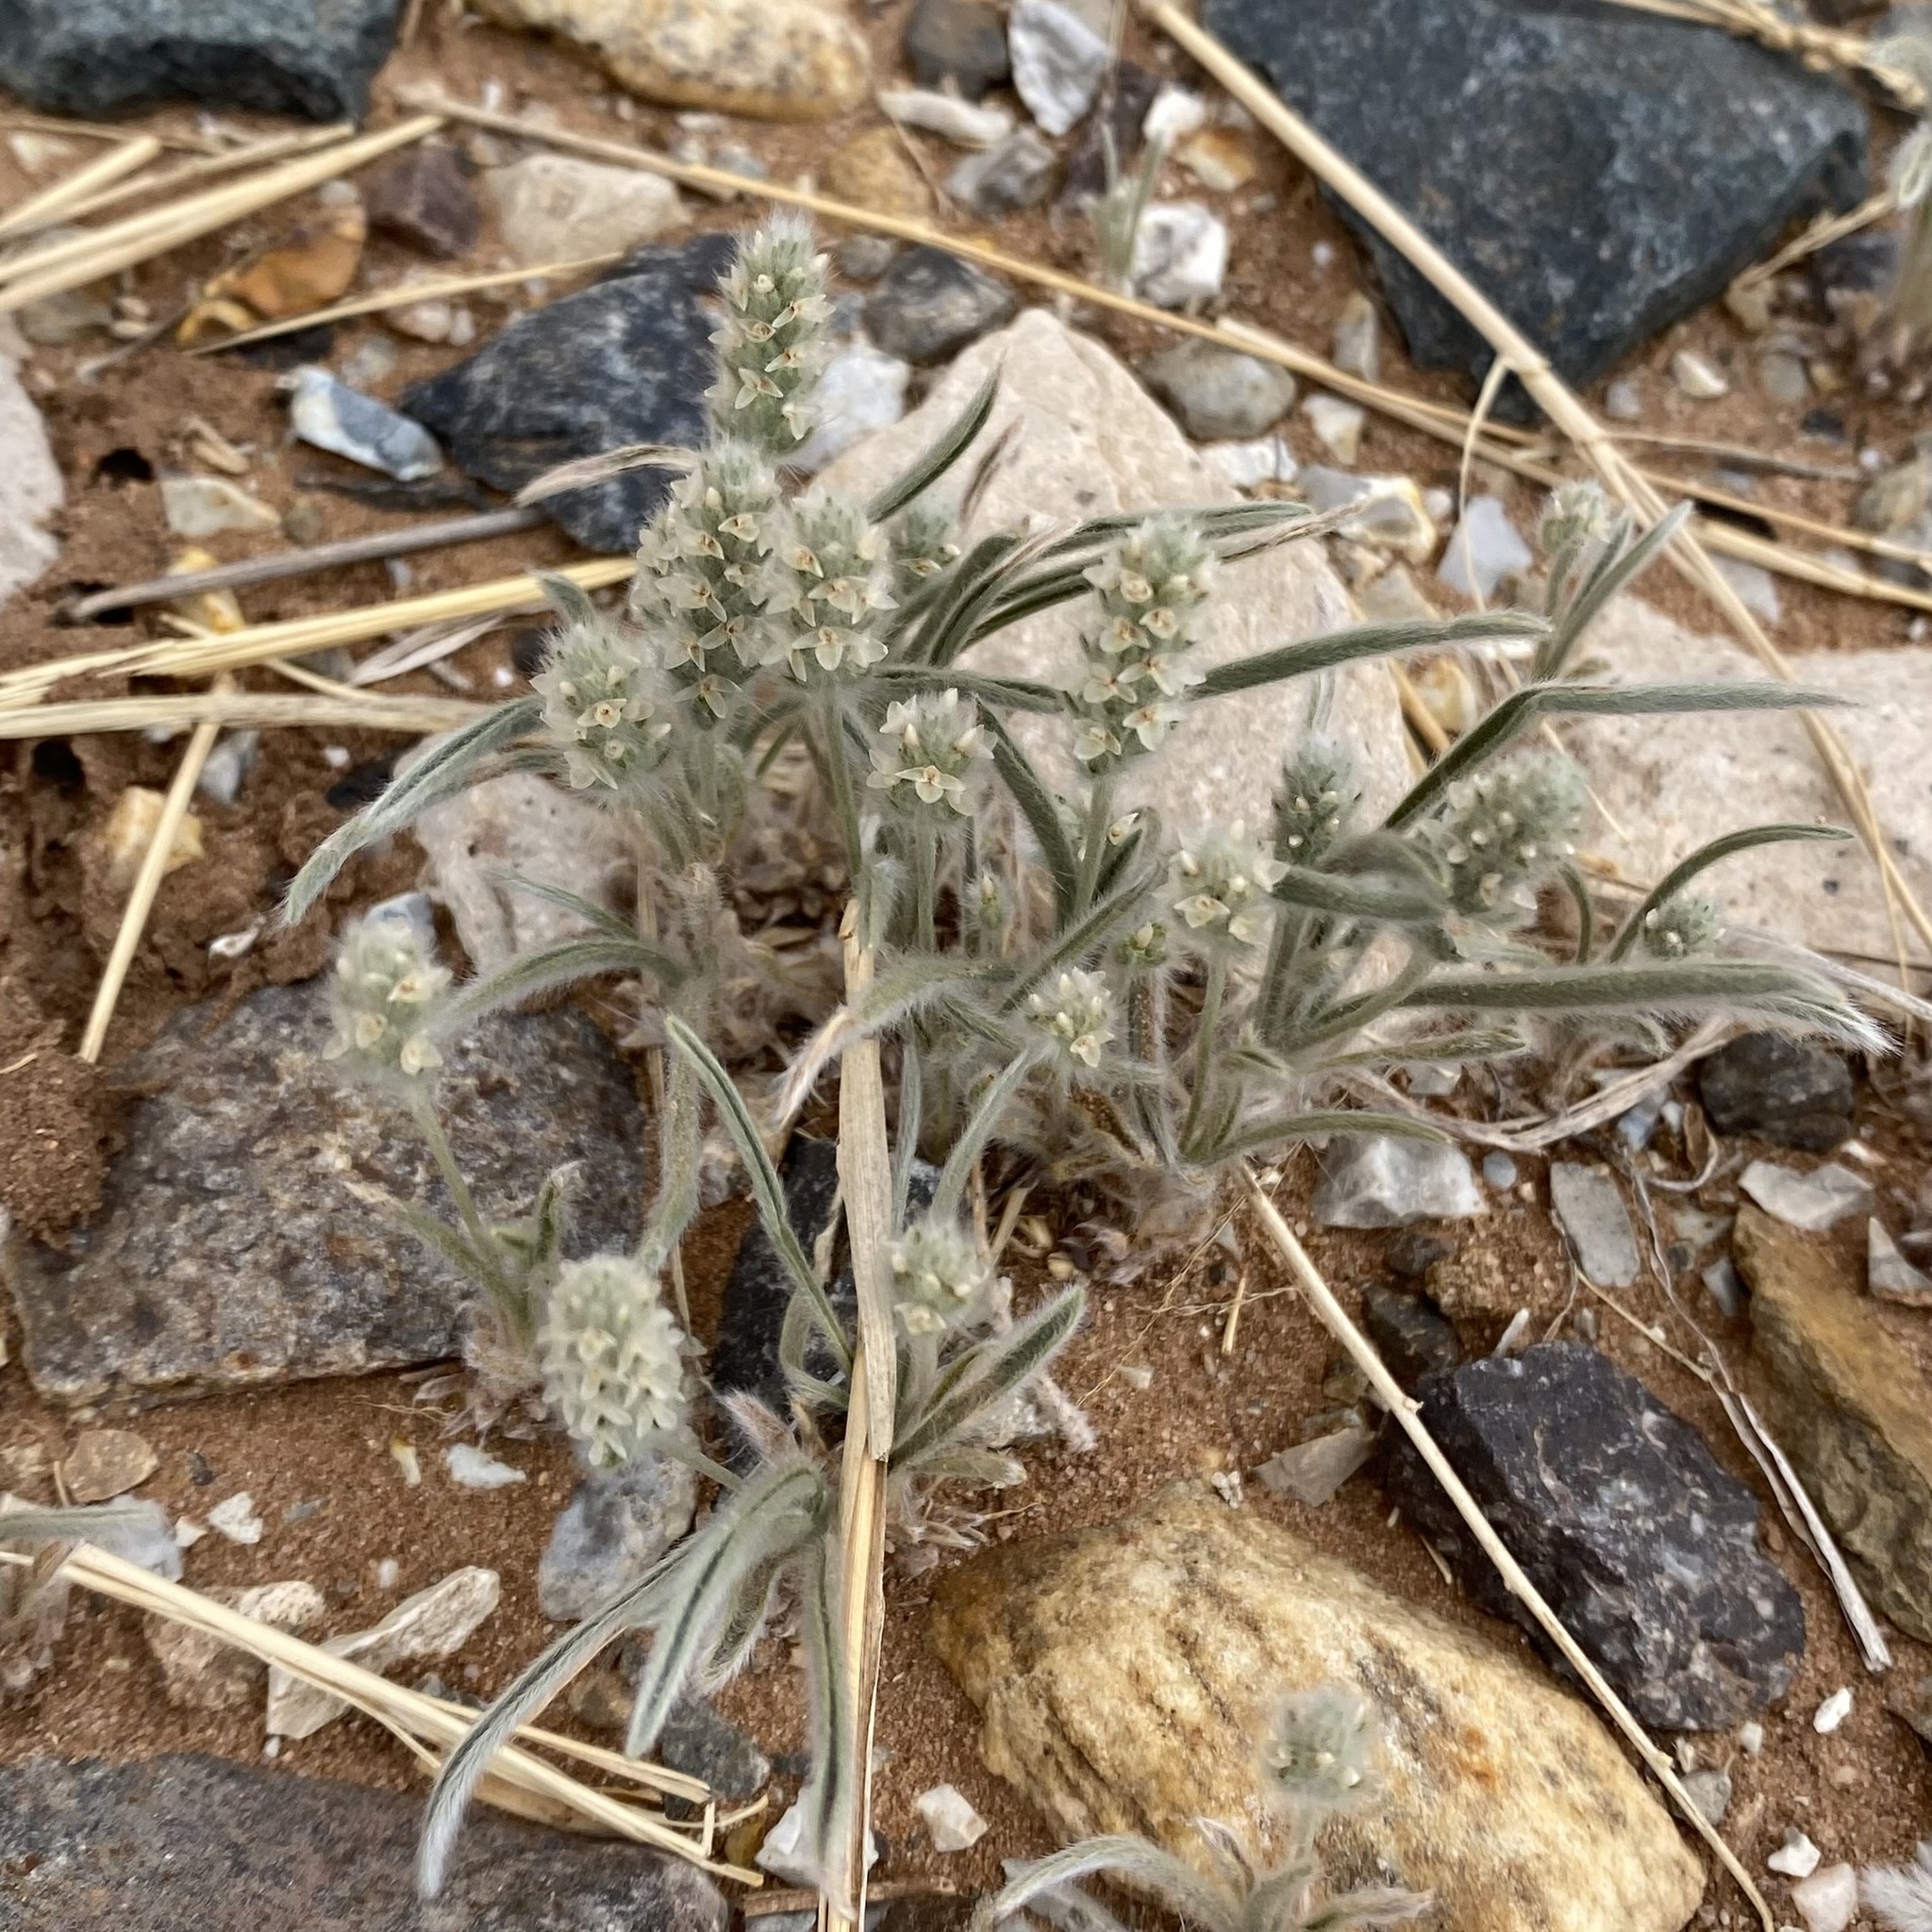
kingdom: Plantae
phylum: Tracheophyta
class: Magnoliopsida
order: Lamiales
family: Plantaginaceae
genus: Plantago
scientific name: Plantago patagonica
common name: Patagonia indian-wheat
